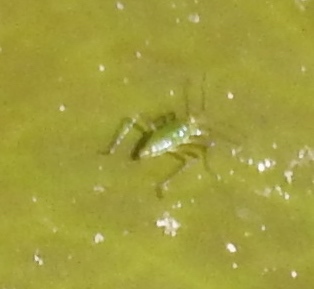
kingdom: Animalia
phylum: Arthropoda
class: Insecta
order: Hemiptera
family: Mesoveliidae
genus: Mesovelia
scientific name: Mesovelia
